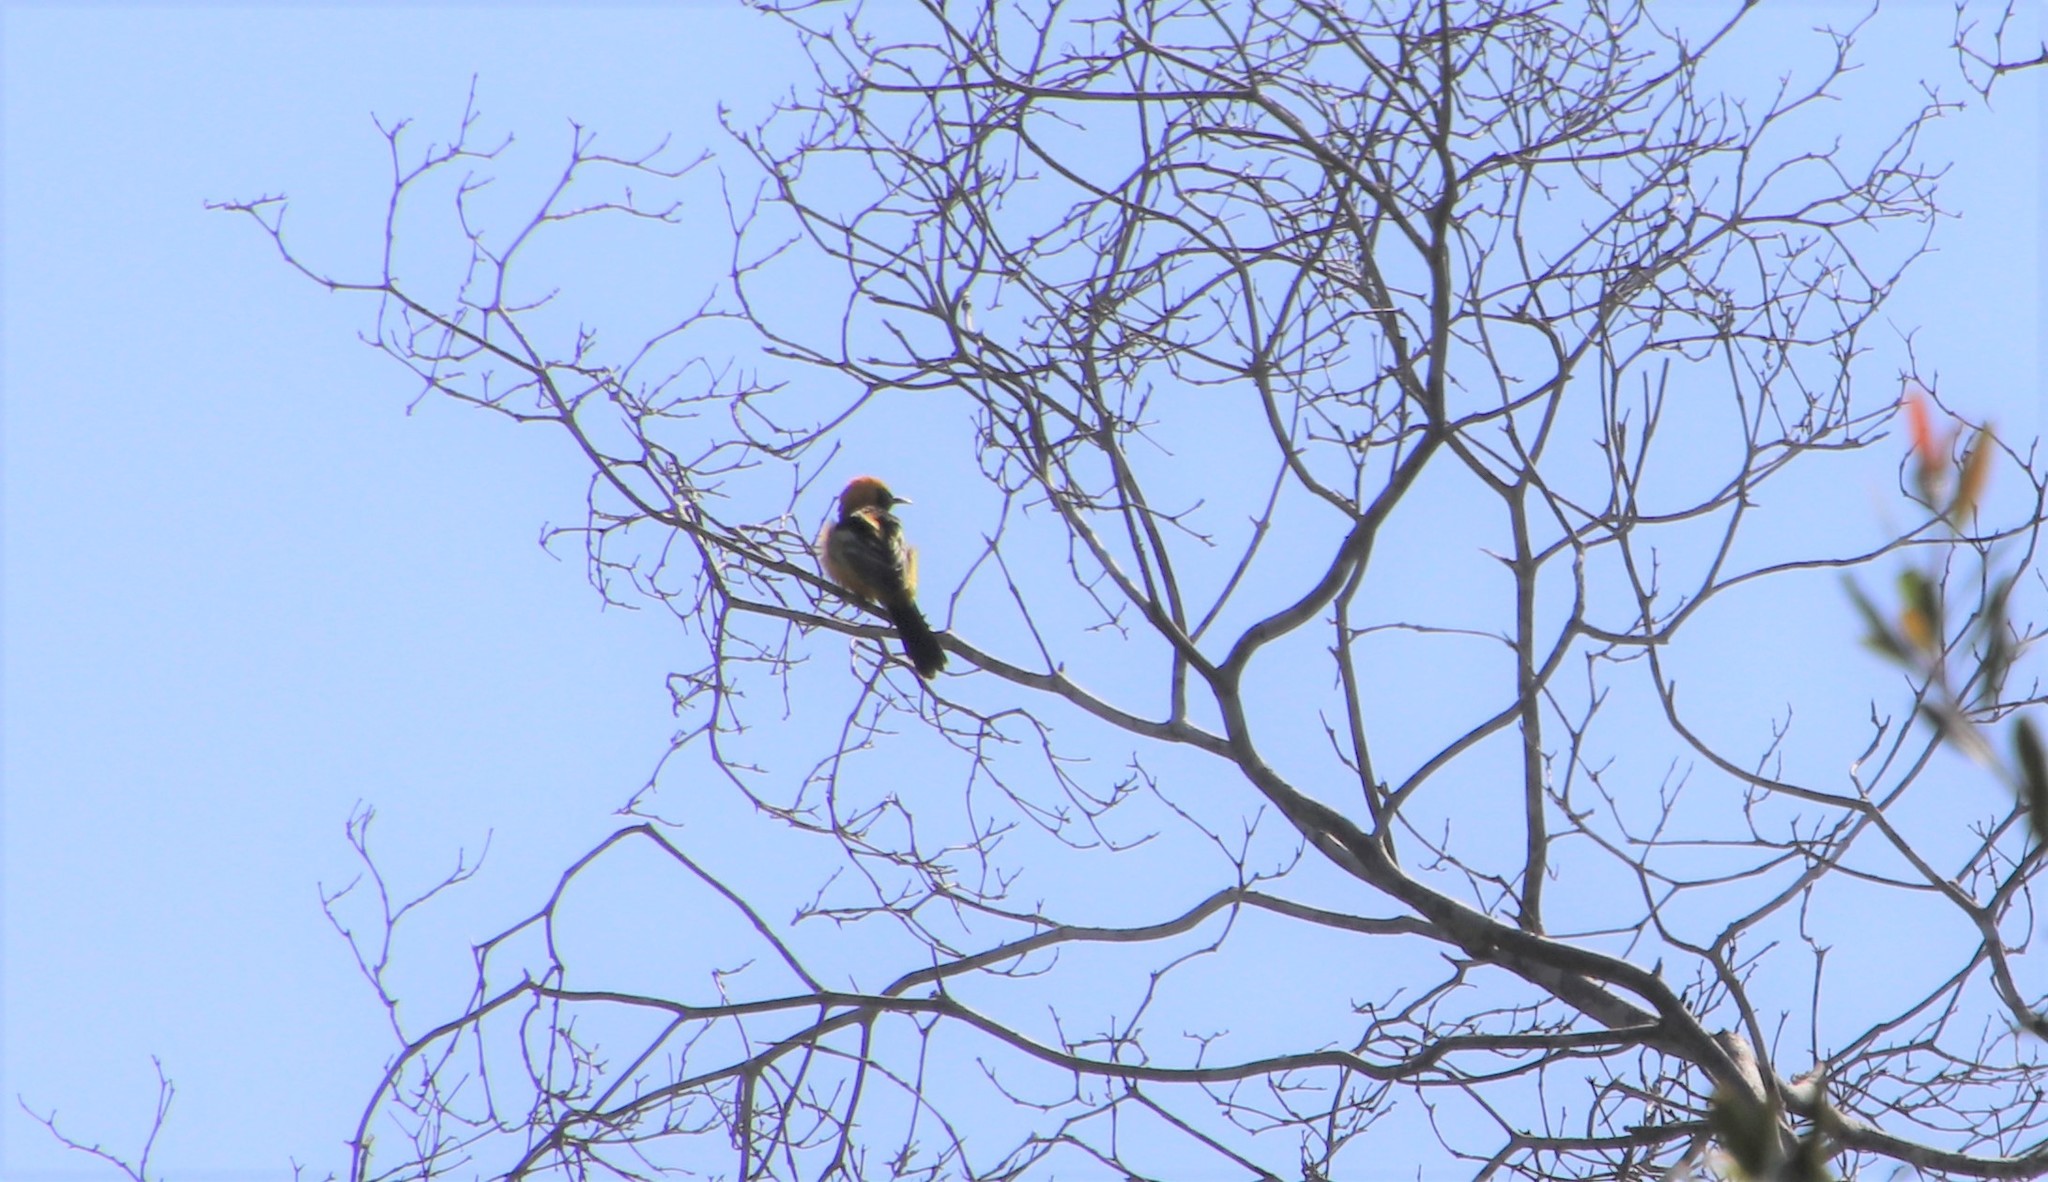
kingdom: Animalia
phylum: Chordata
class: Aves
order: Passeriformes
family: Icteridae
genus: Icterus
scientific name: Icterus cucullatus
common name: Hooded oriole
